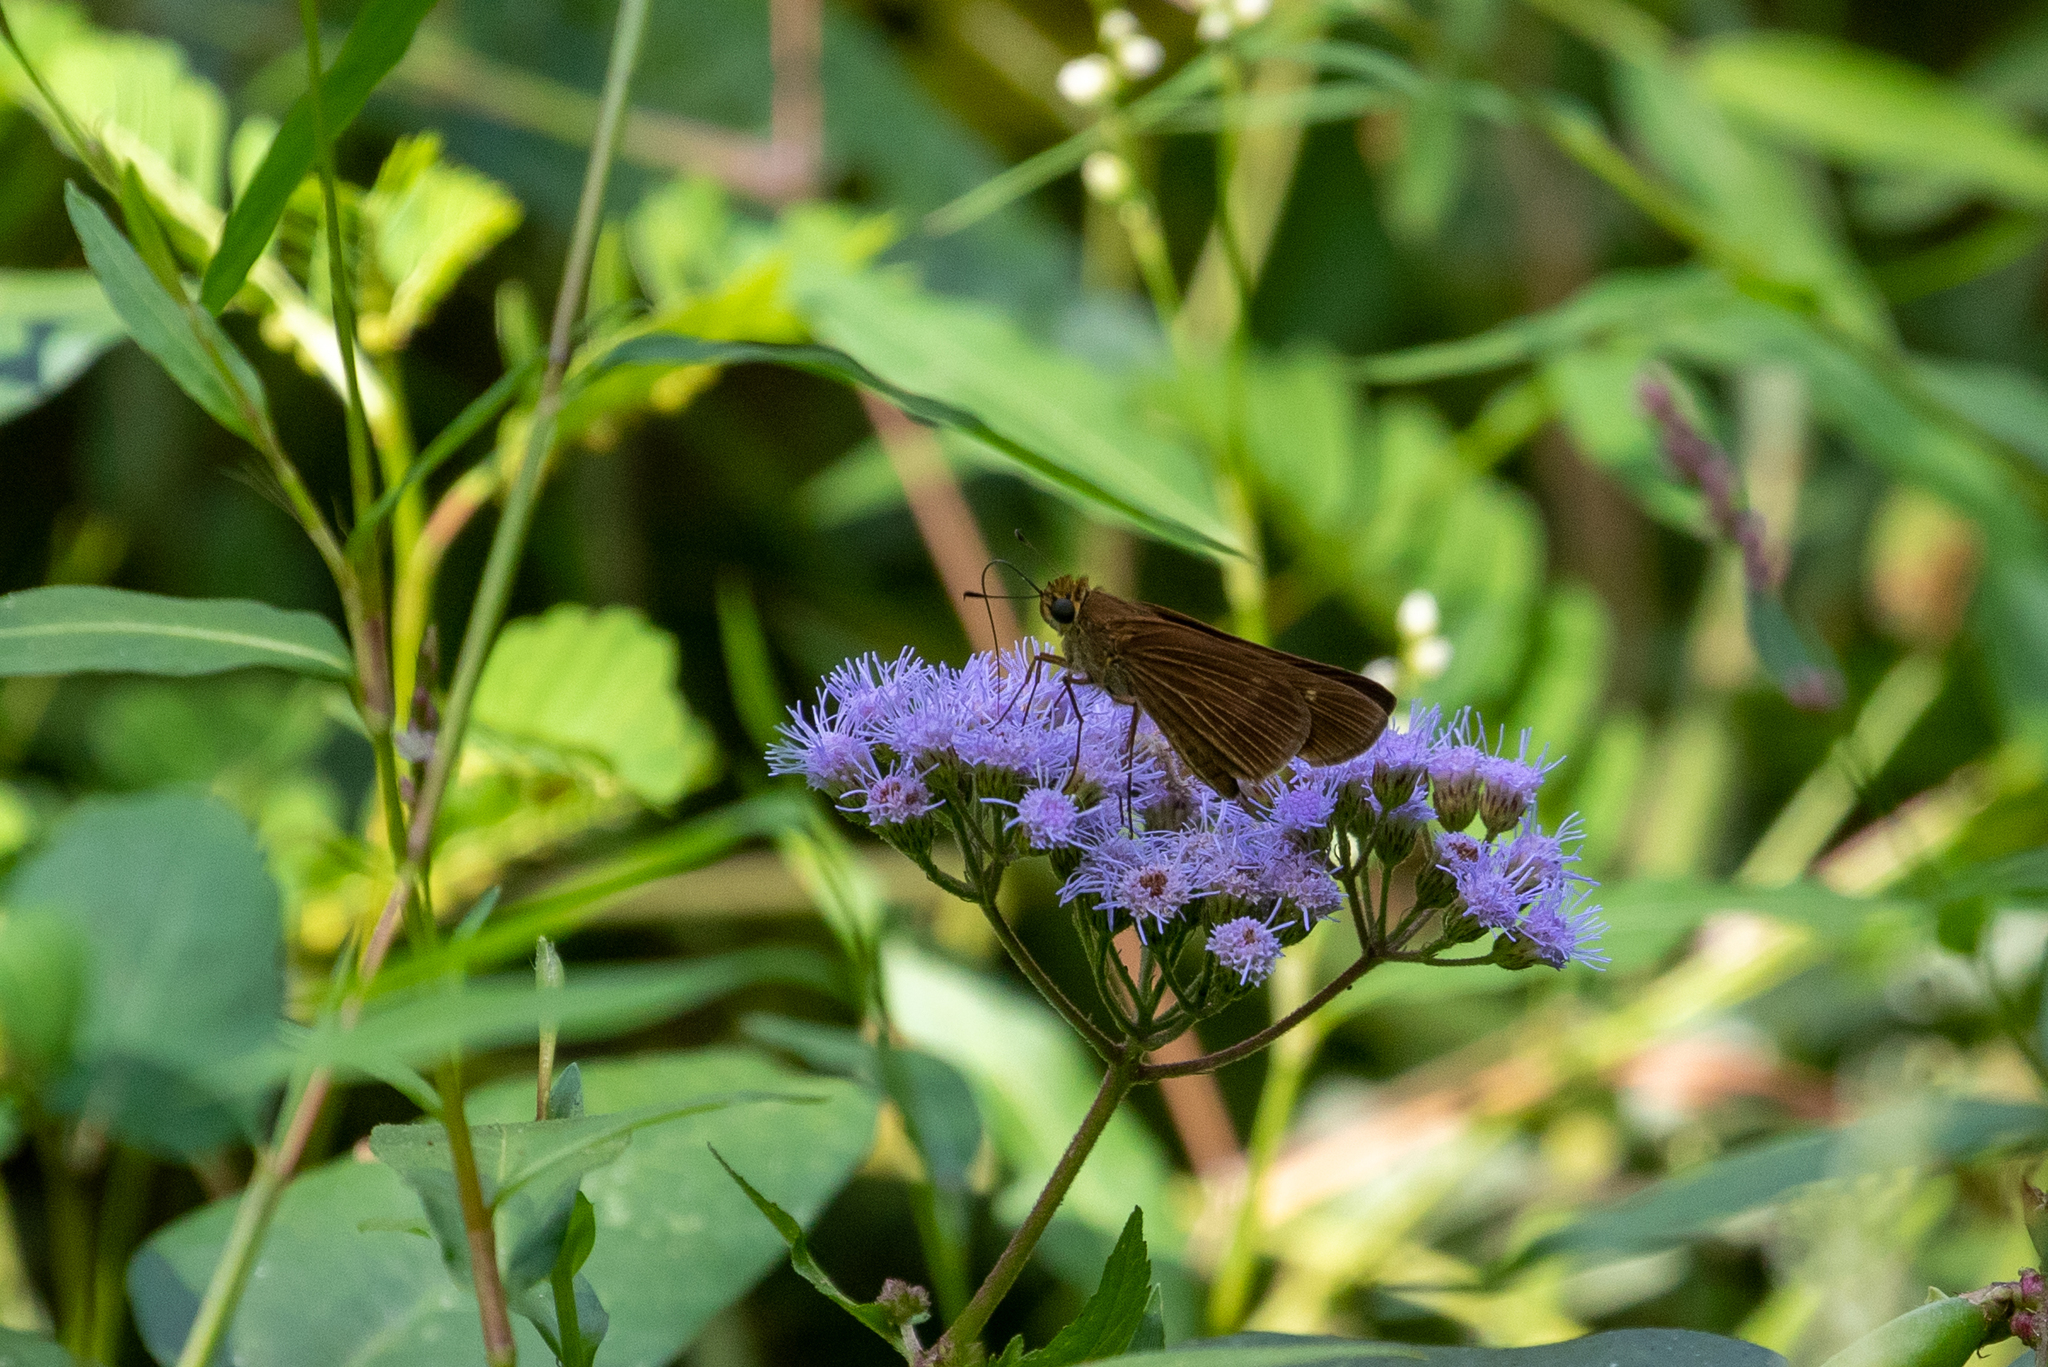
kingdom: Animalia
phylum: Arthropoda
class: Insecta
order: Lepidoptera
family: Hesperiidae
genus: Panoquina
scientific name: Panoquina ocola
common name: Ocola skipper
